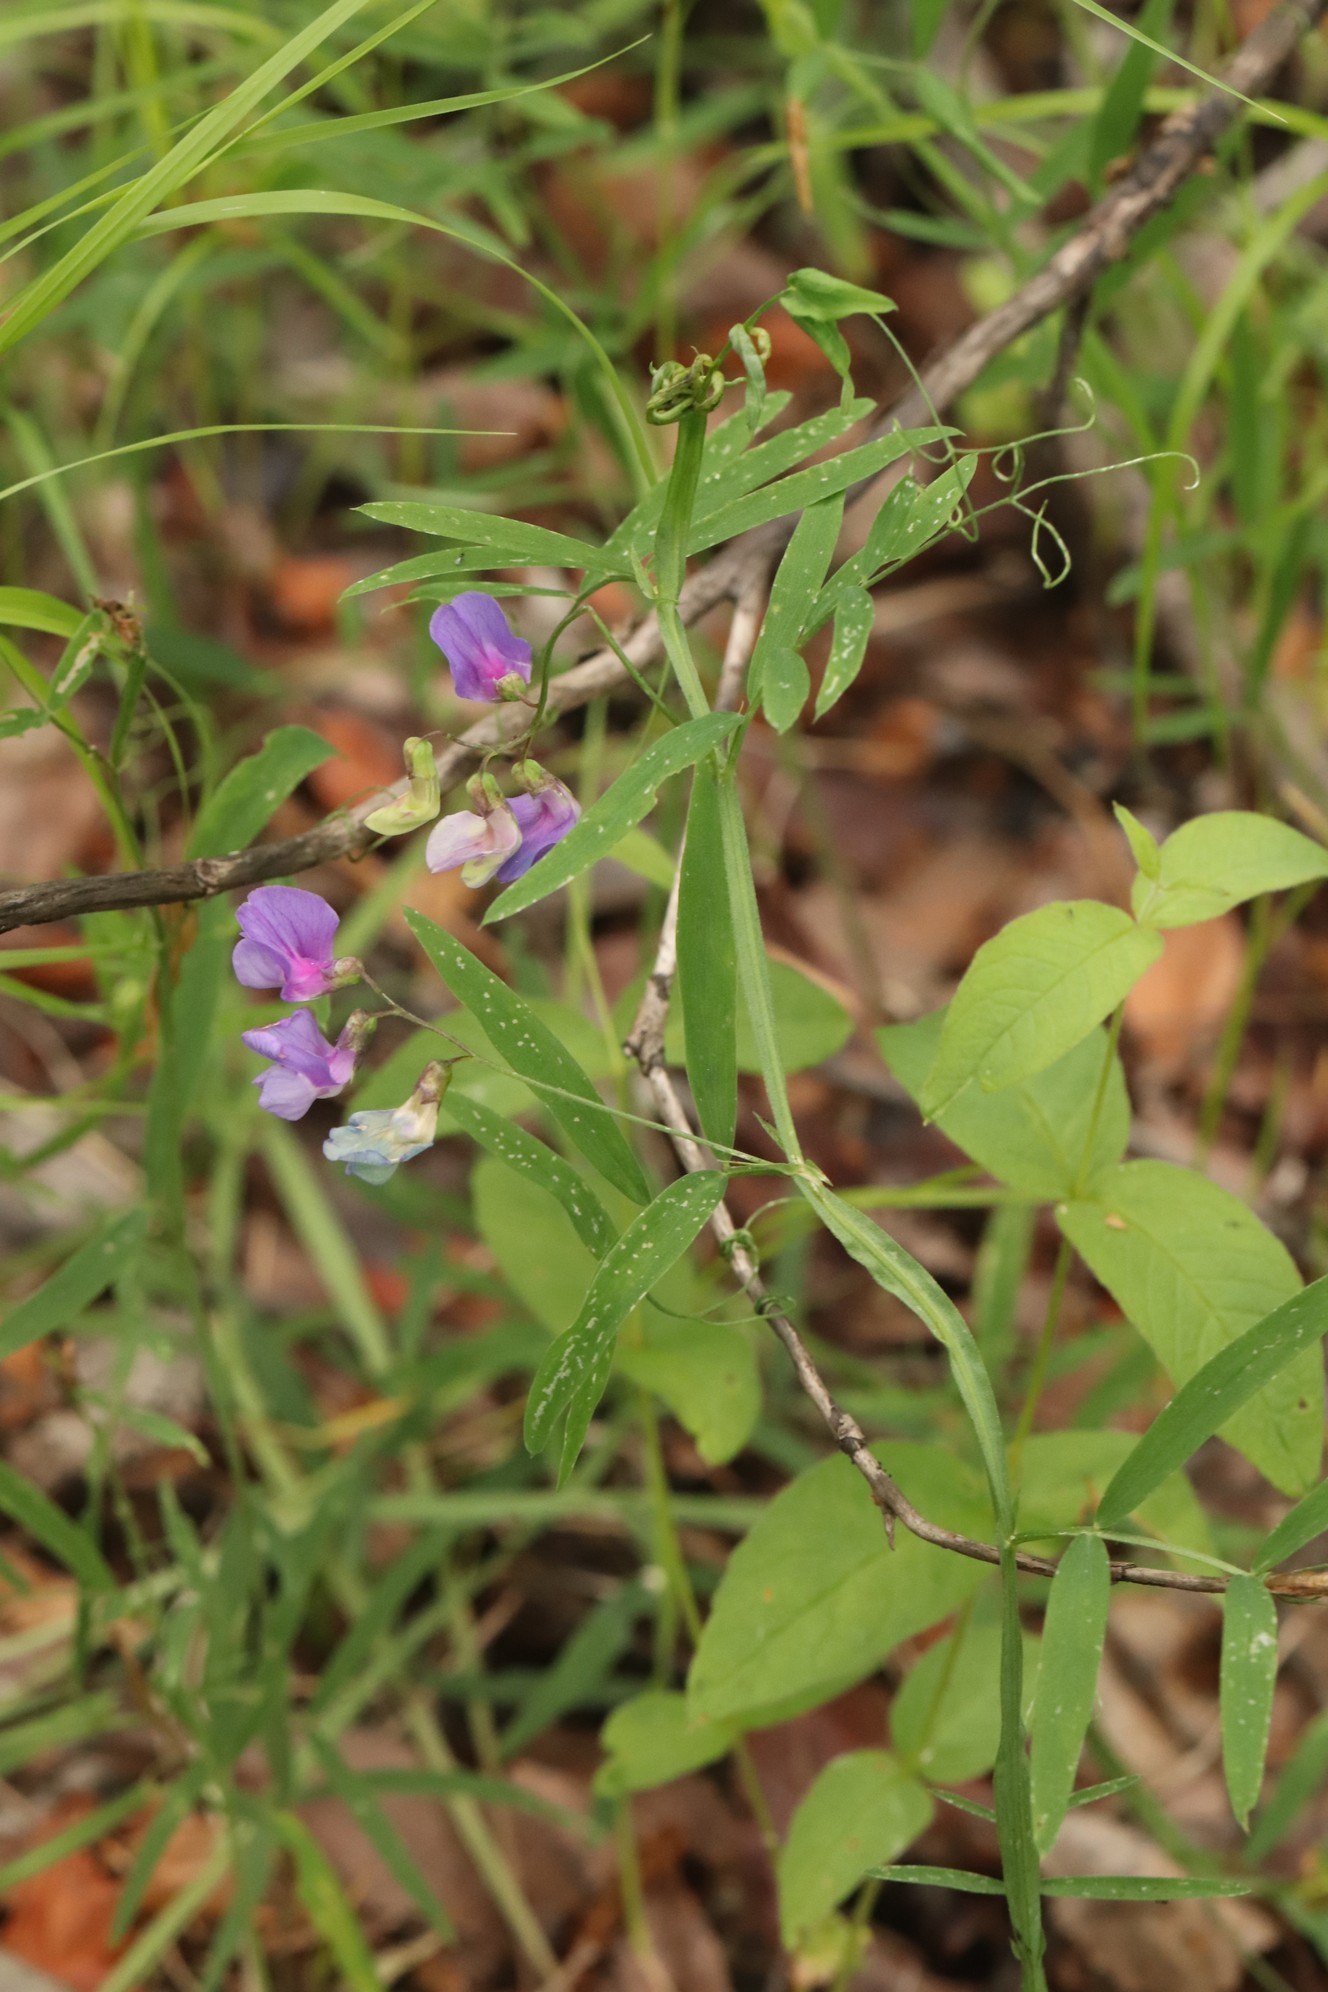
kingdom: Plantae
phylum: Tracheophyta
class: Magnoliopsida
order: Fabales
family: Fabaceae
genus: Lathyrus
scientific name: Lathyrus palustris
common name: Marsh pea
